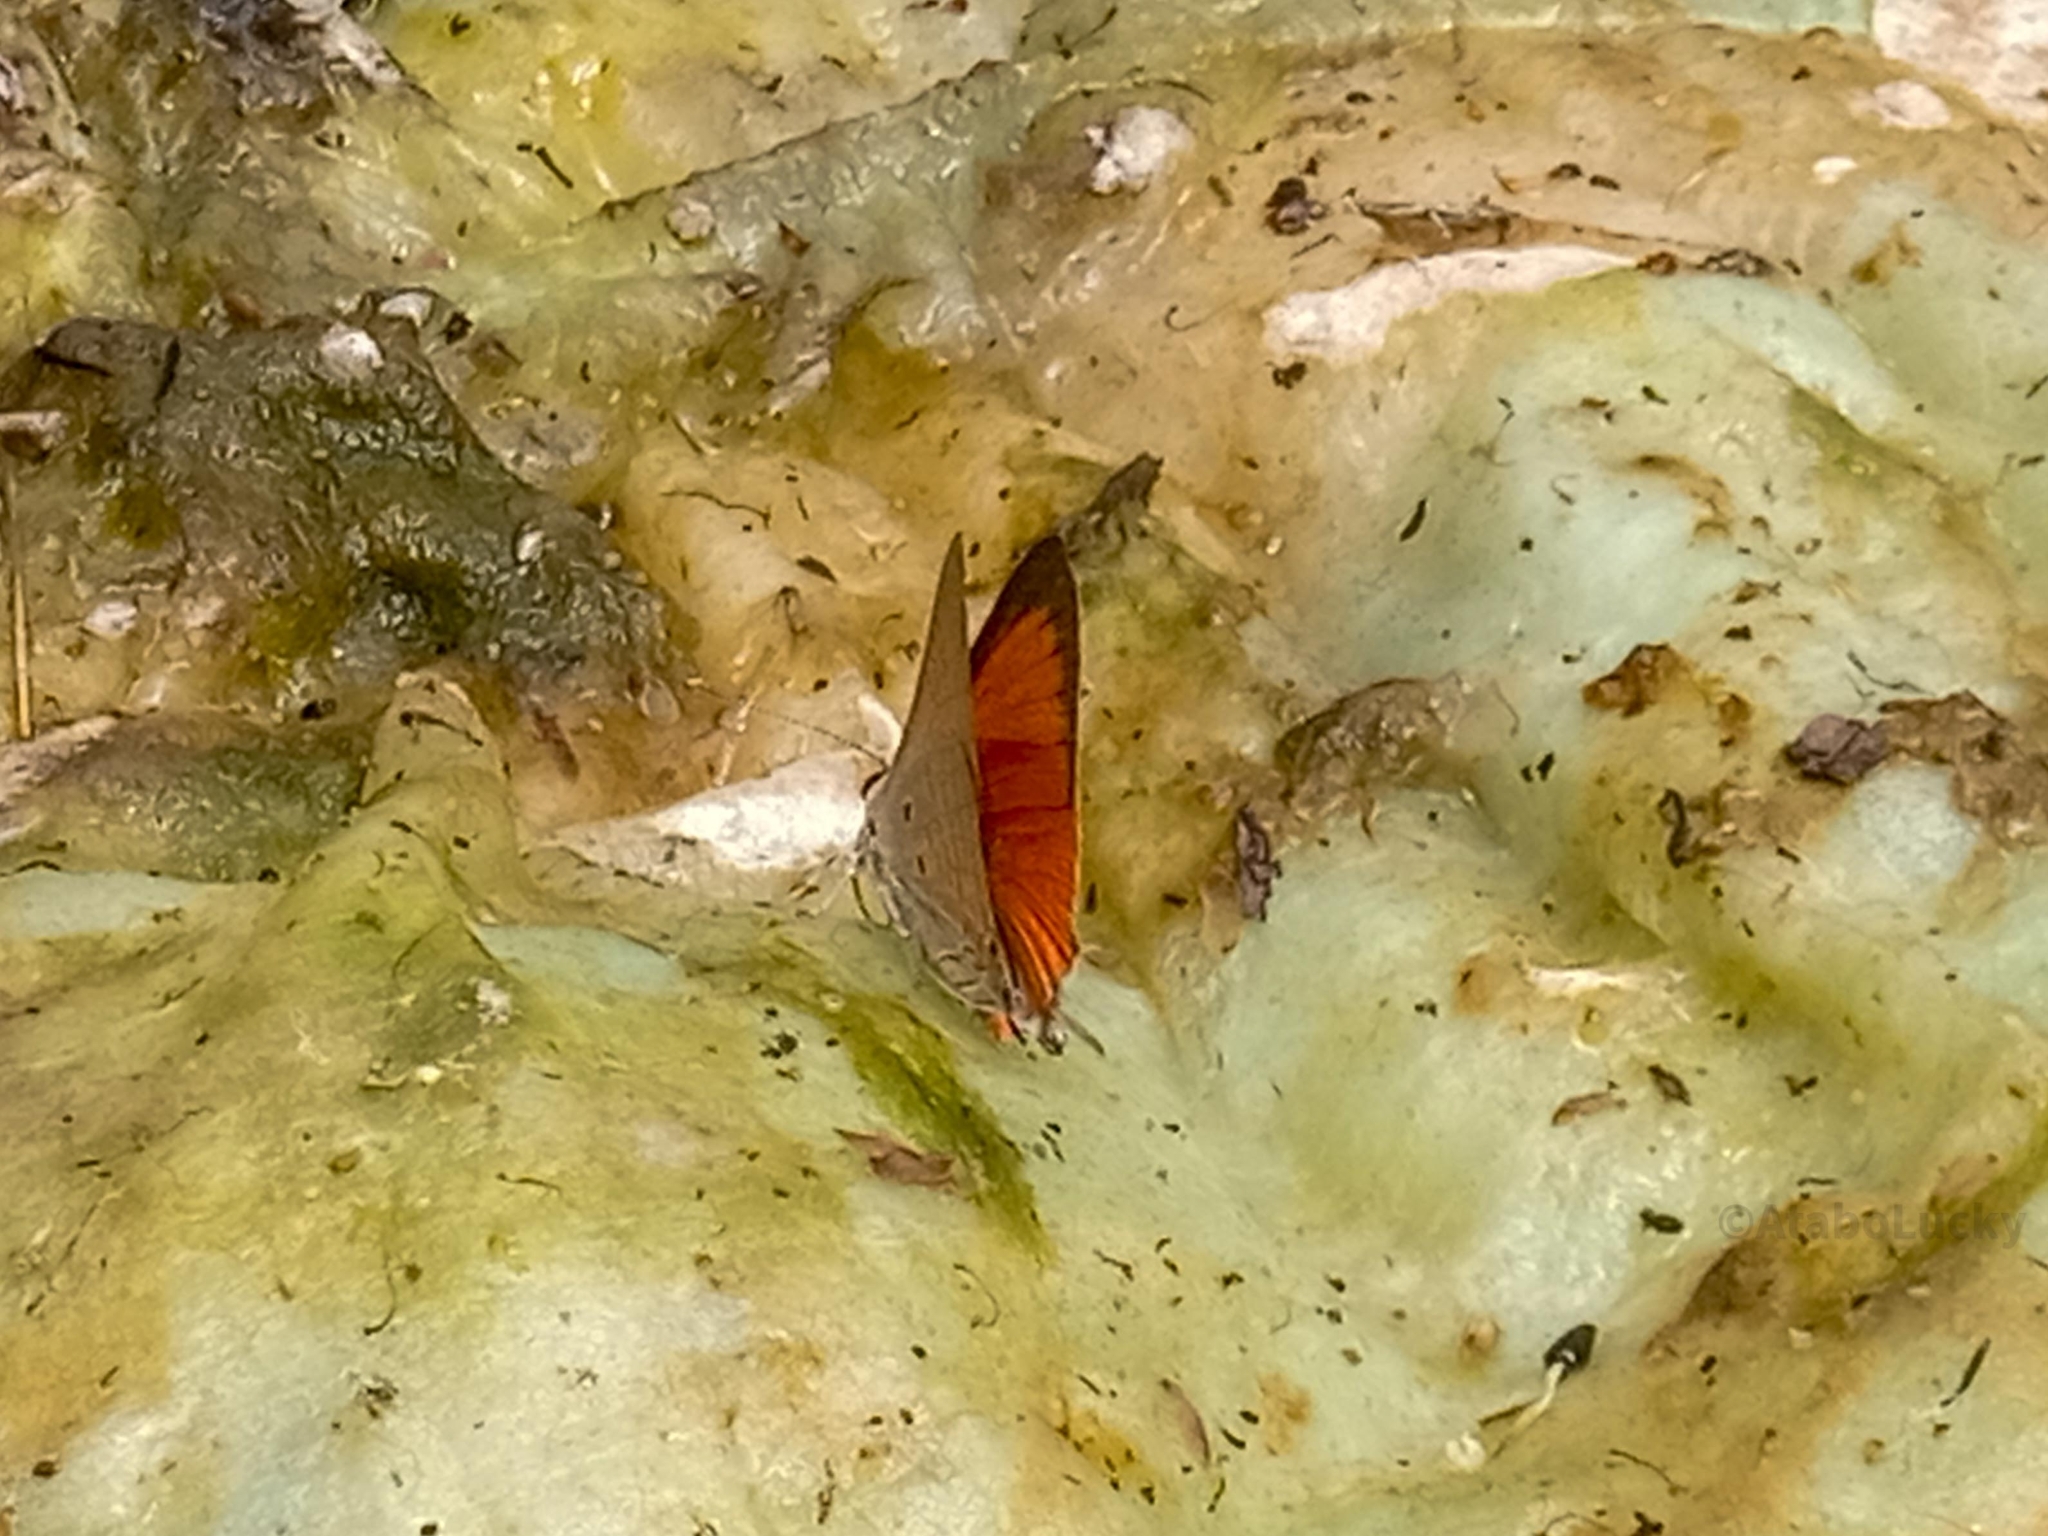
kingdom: Animalia
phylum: Arthropoda
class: Insecta
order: Lepidoptera
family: Lycaenidae
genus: Deudorix
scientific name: Deudorix livia
